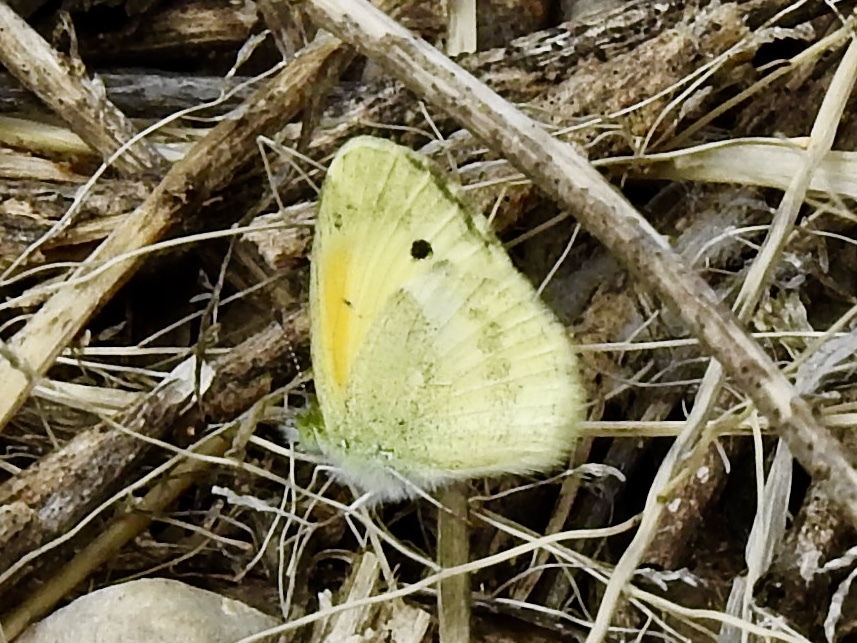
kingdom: Animalia
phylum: Arthropoda
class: Insecta
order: Lepidoptera
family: Pieridae
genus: Nathalis
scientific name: Nathalis iole
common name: Dainty sulphur
